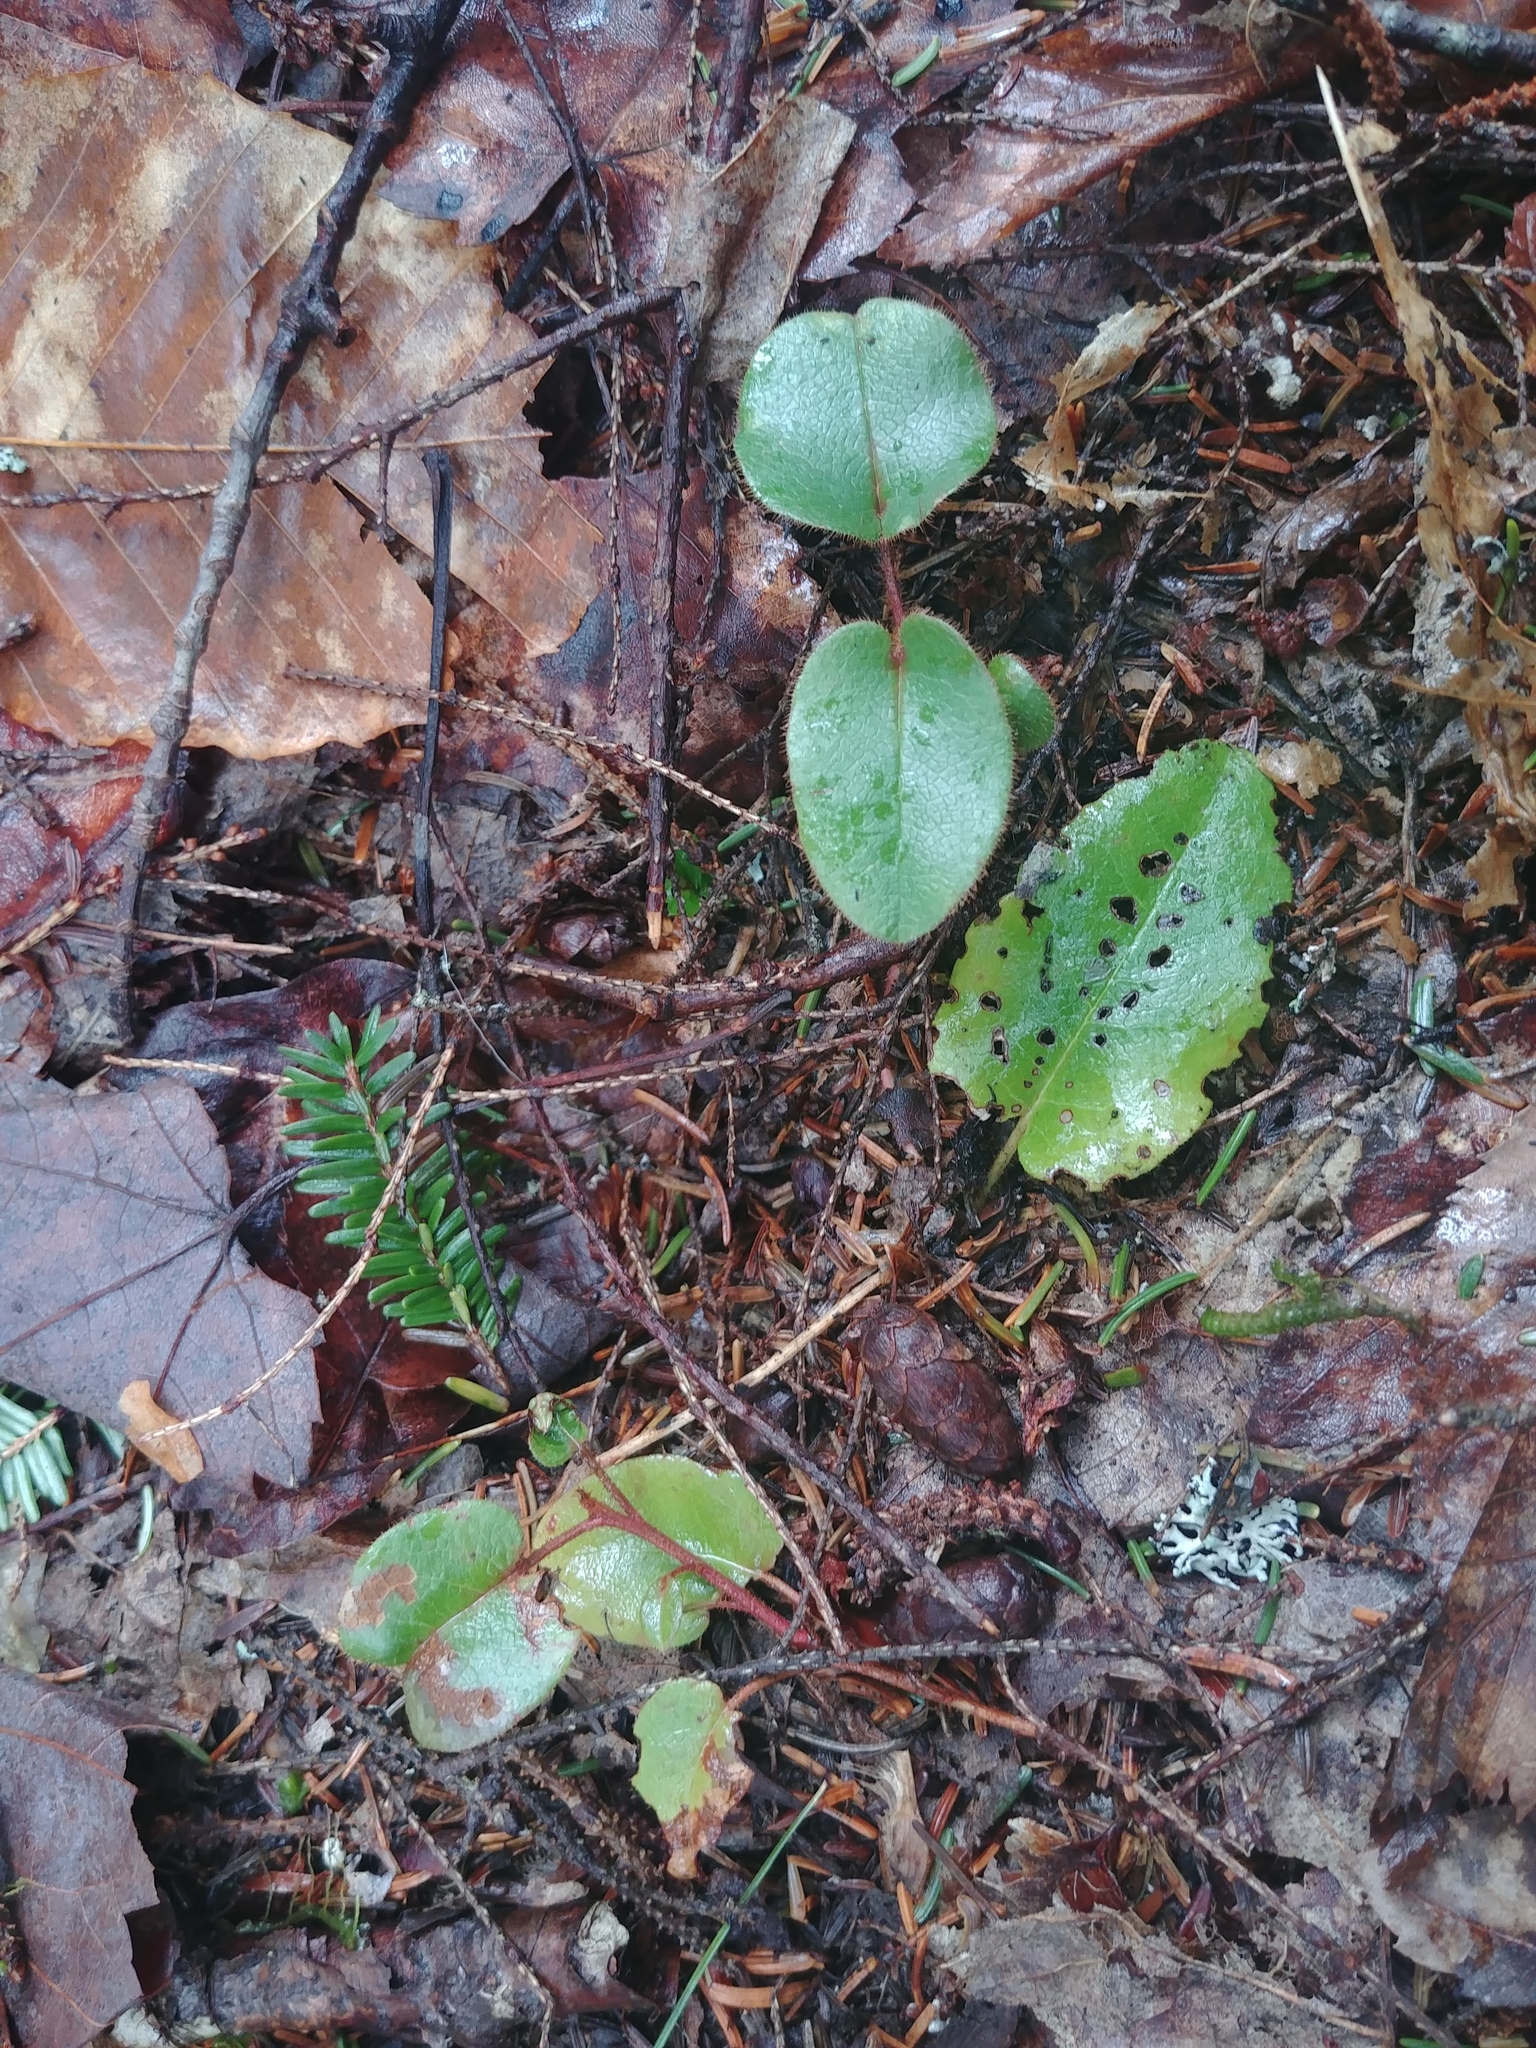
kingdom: Plantae
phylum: Tracheophyta
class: Magnoliopsida
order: Ericales
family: Ericaceae
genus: Epigaea
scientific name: Epigaea repens
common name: Gravelroot
